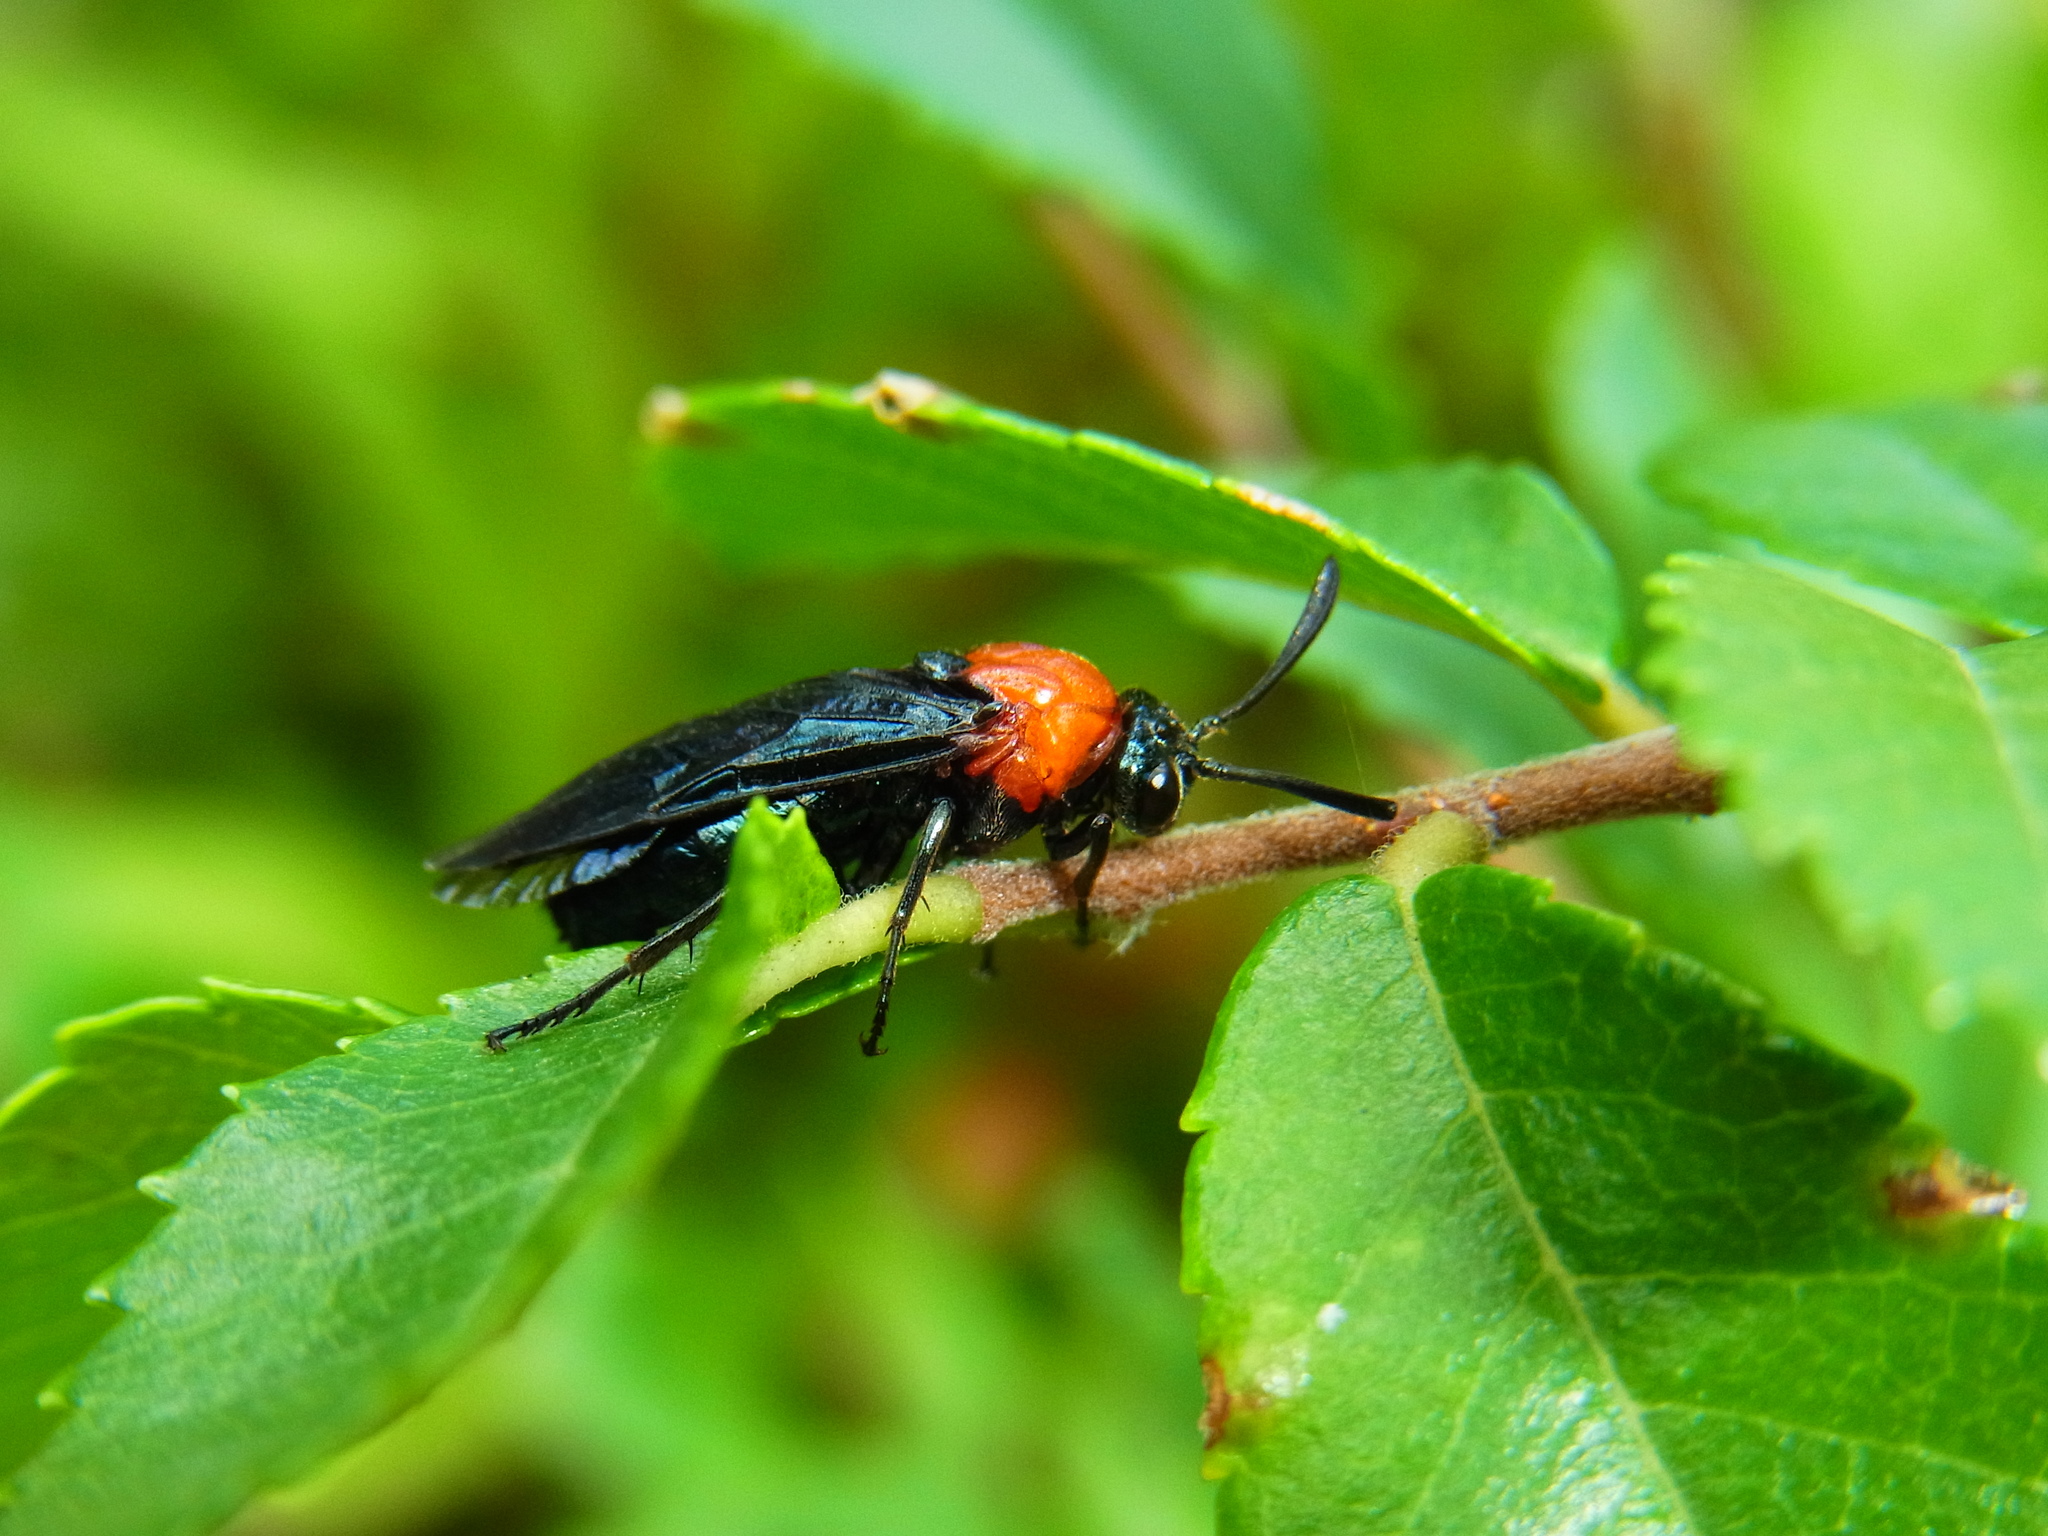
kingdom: Animalia
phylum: Arthropoda
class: Insecta
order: Hymenoptera
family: Argidae
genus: Arge
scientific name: Arge captiva
